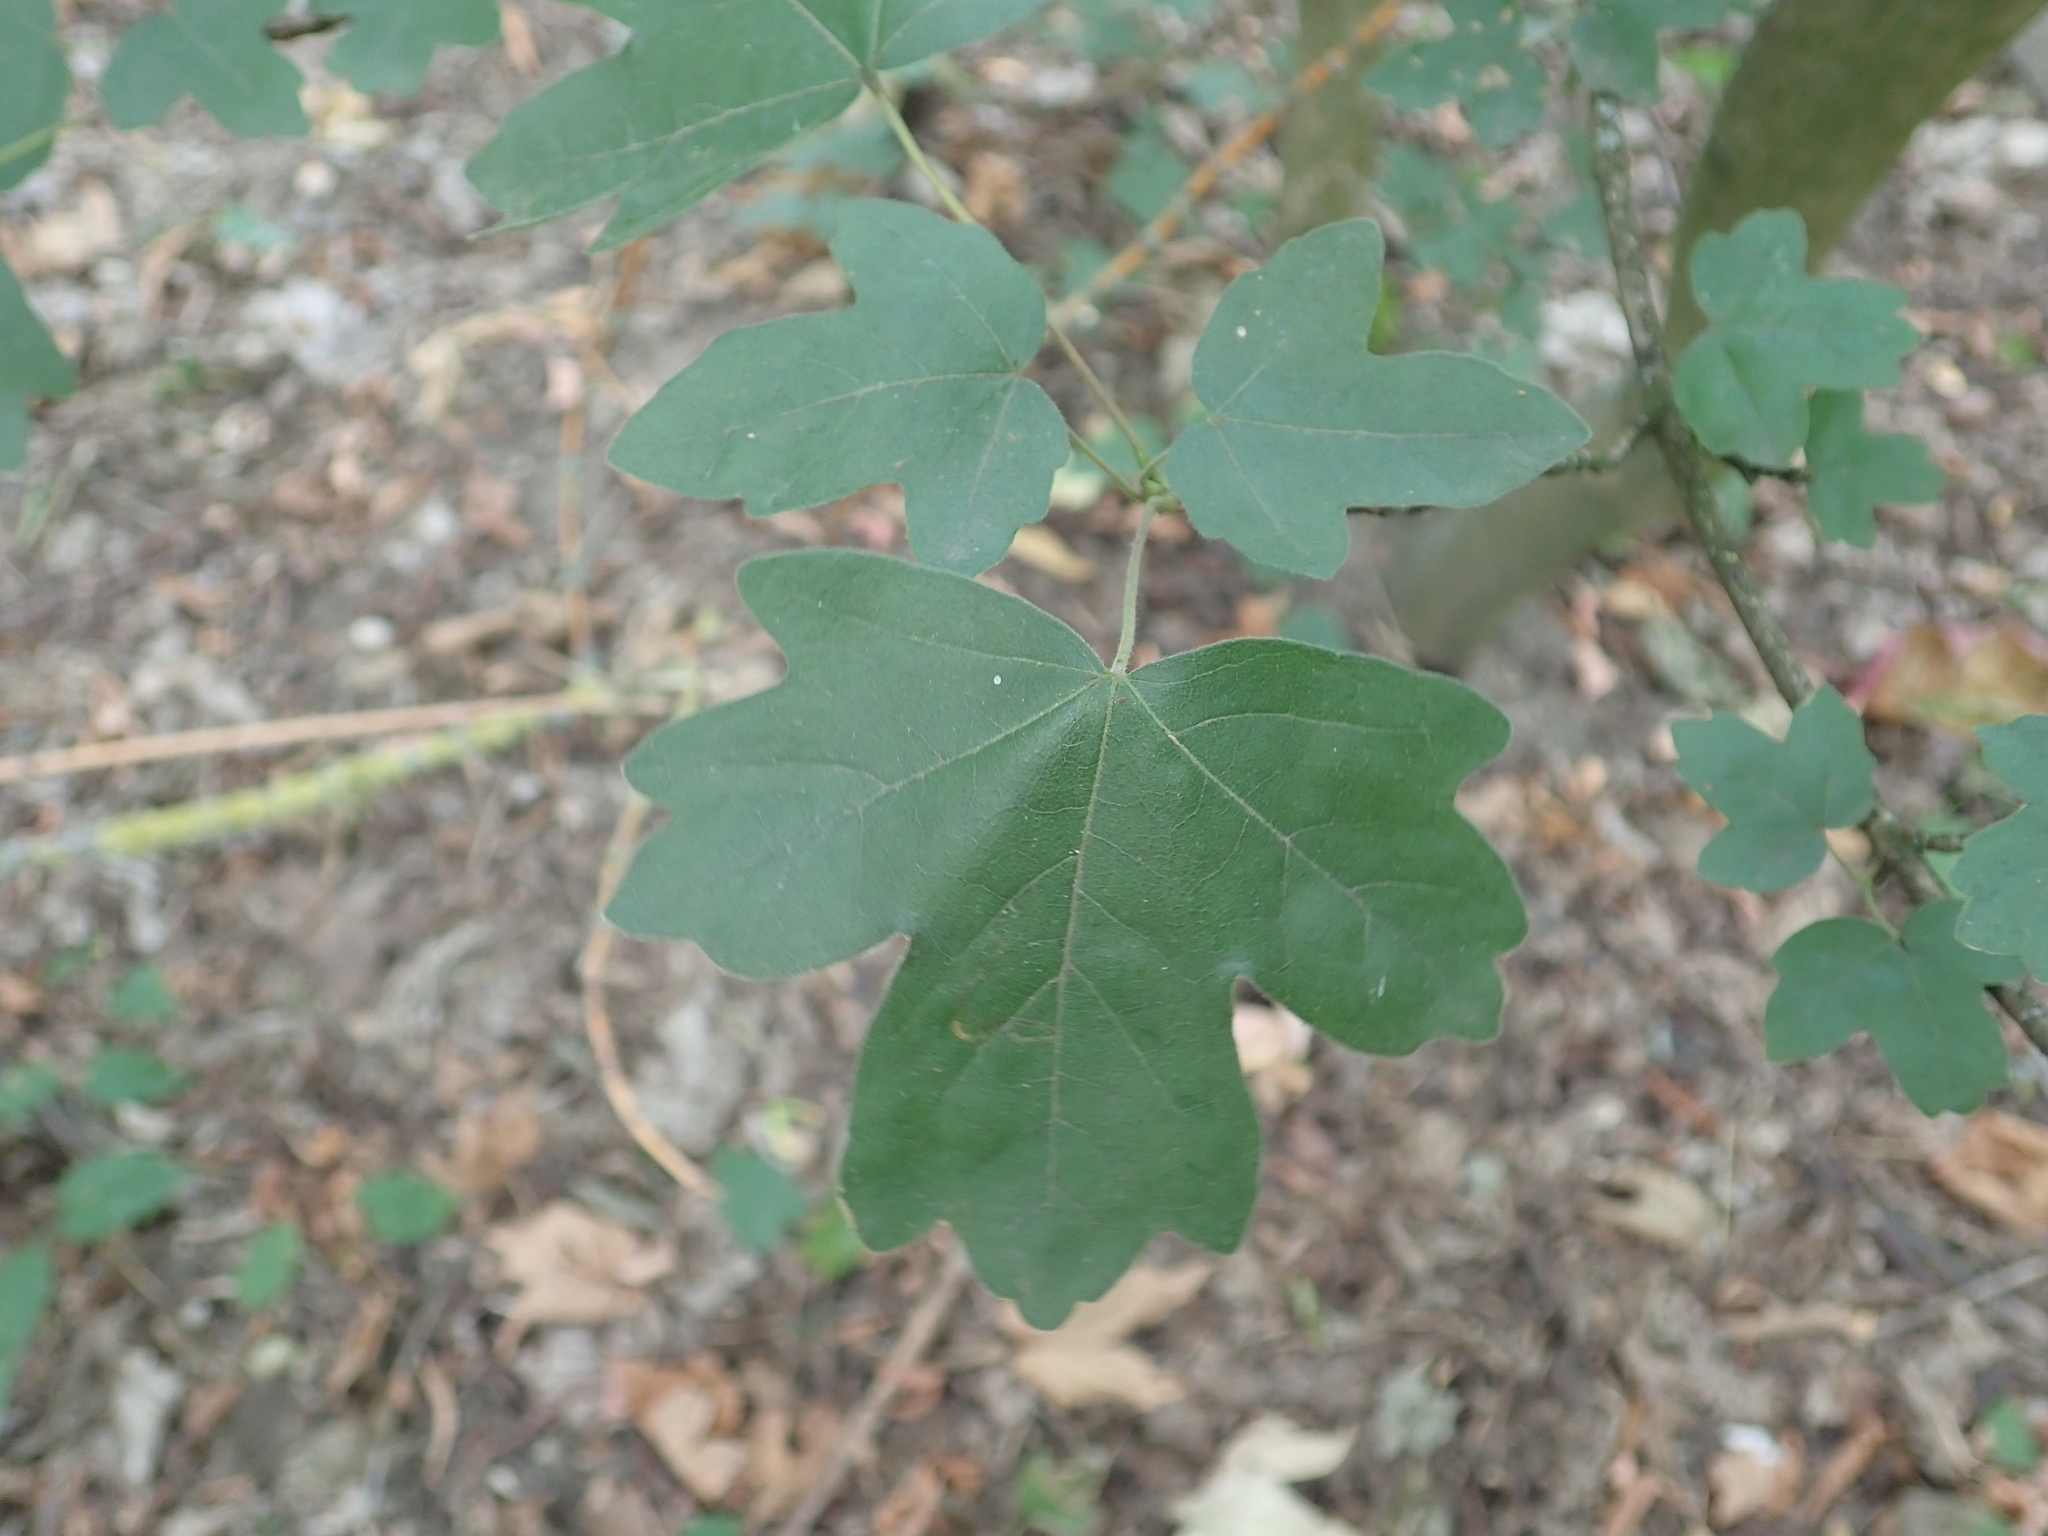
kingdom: Plantae
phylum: Tracheophyta
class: Magnoliopsida
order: Sapindales
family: Sapindaceae
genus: Acer
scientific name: Acer campestre
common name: Field maple
